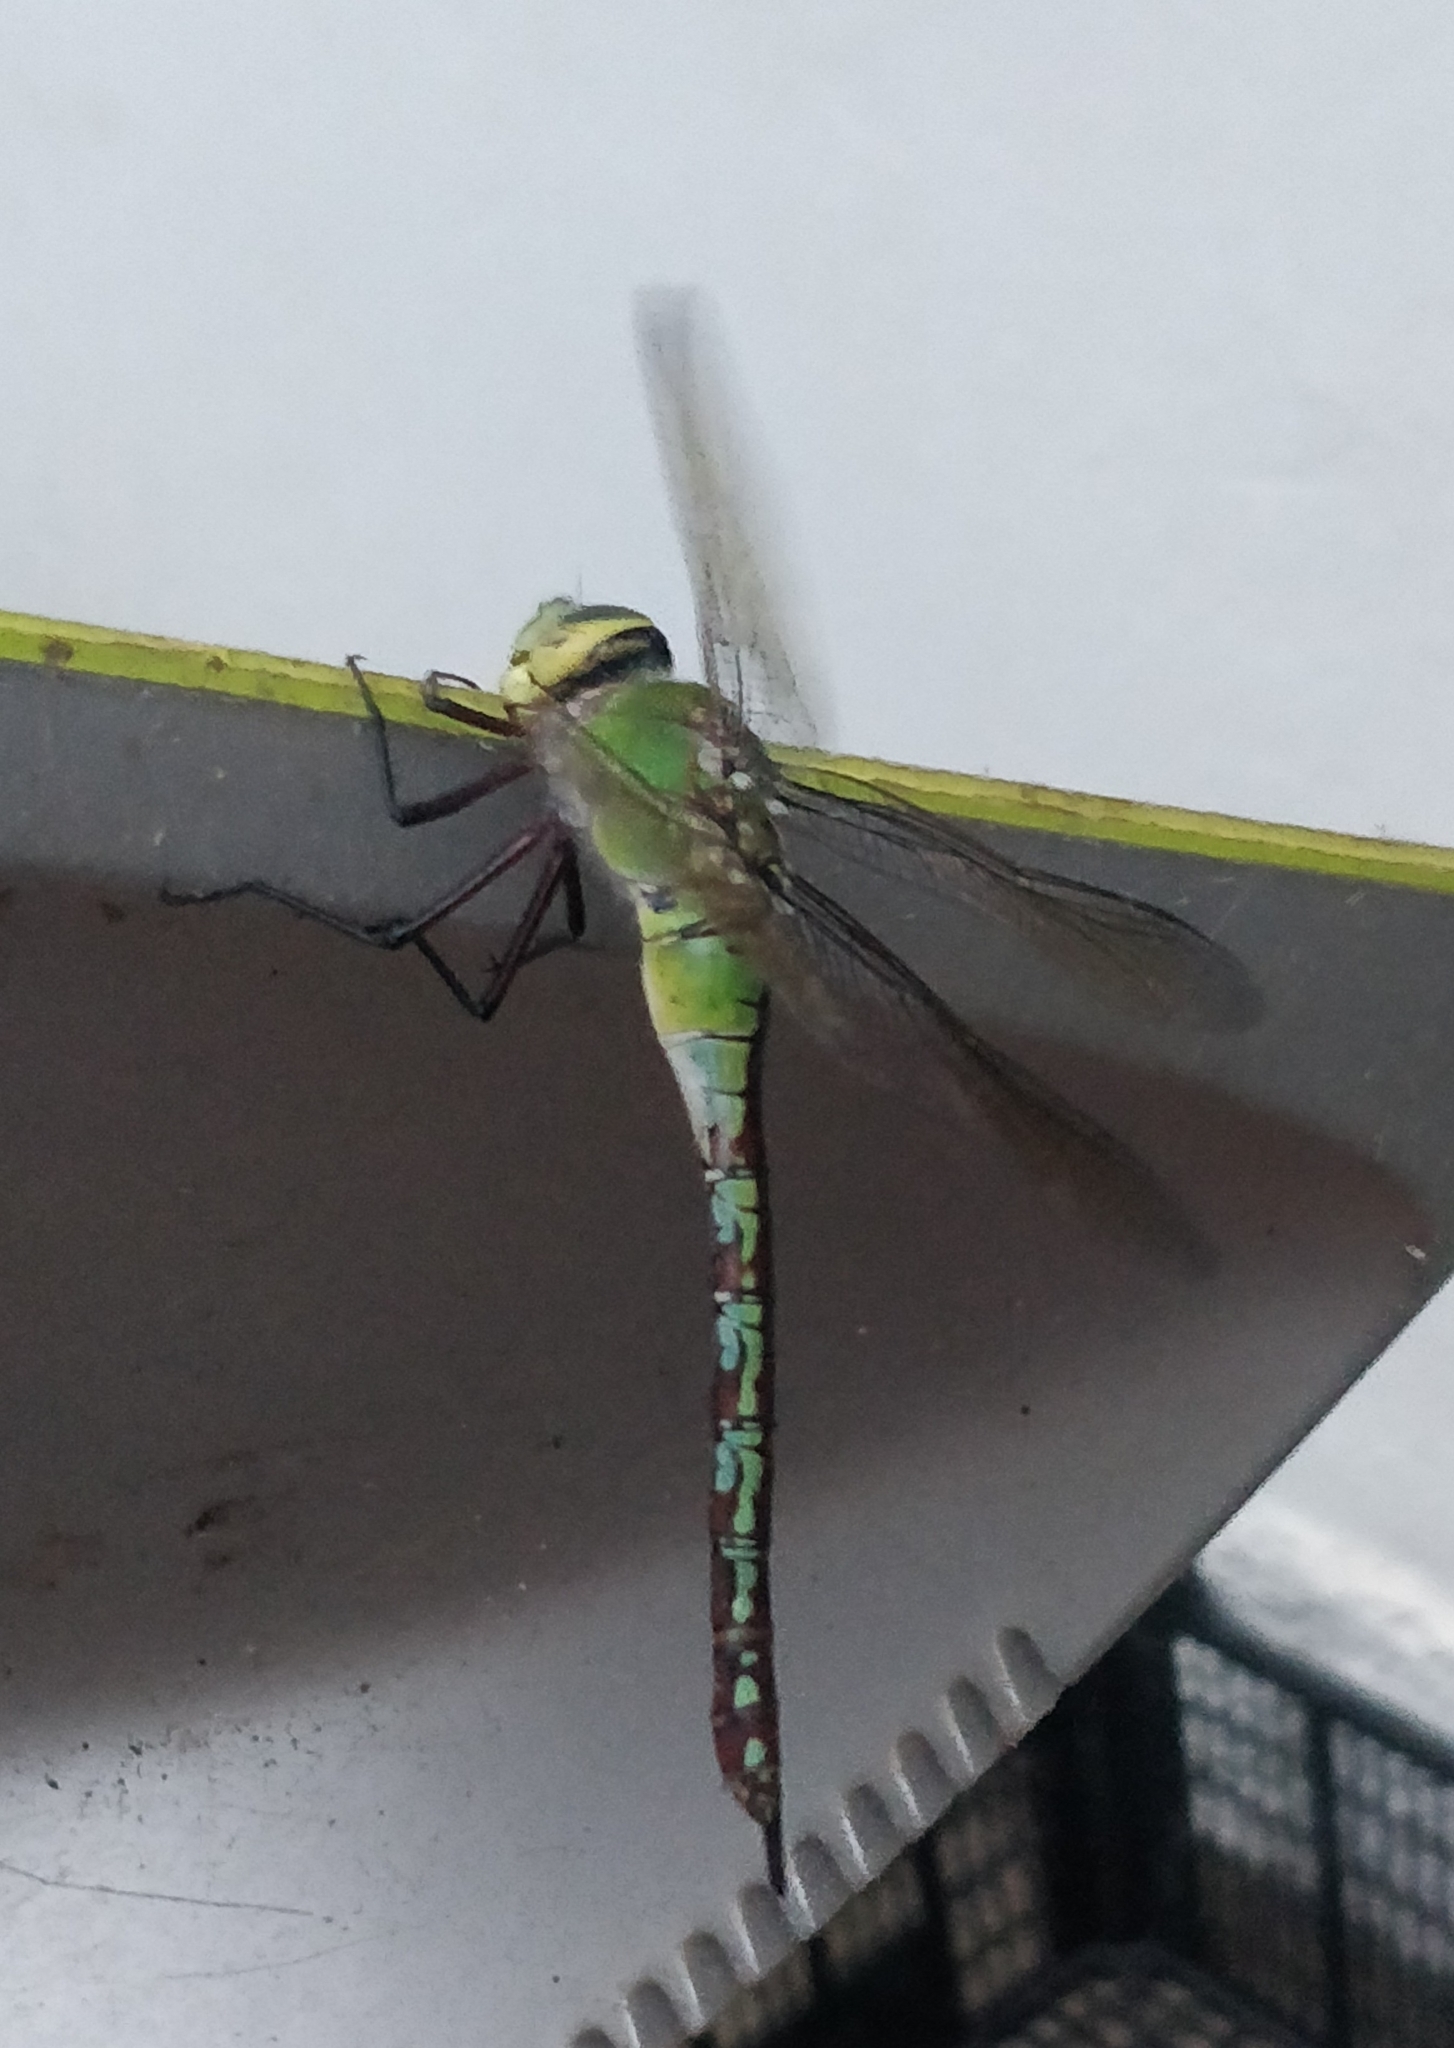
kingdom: Animalia
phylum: Arthropoda
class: Insecta
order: Odonata
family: Aeshnidae
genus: Anax
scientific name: Anax imperator
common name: Emperor dragonfly
